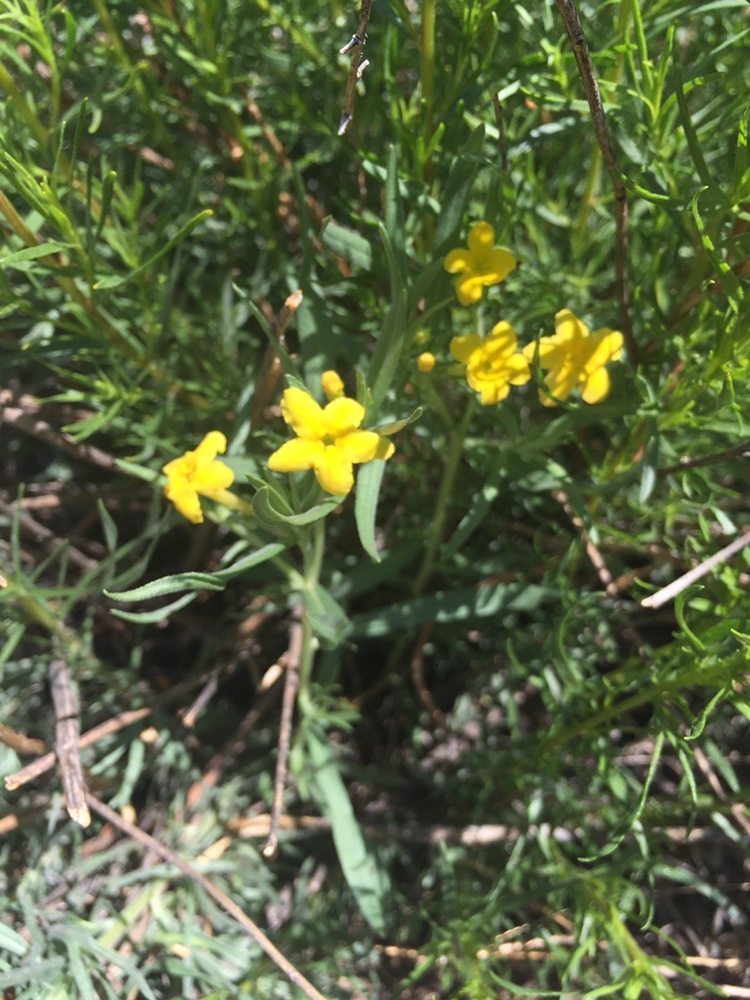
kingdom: Plantae
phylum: Tracheophyta
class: Magnoliopsida
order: Boraginales
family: Boraginaceae
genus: Lithospermum
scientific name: Lithospermum incisum
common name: Fringed gromwell
